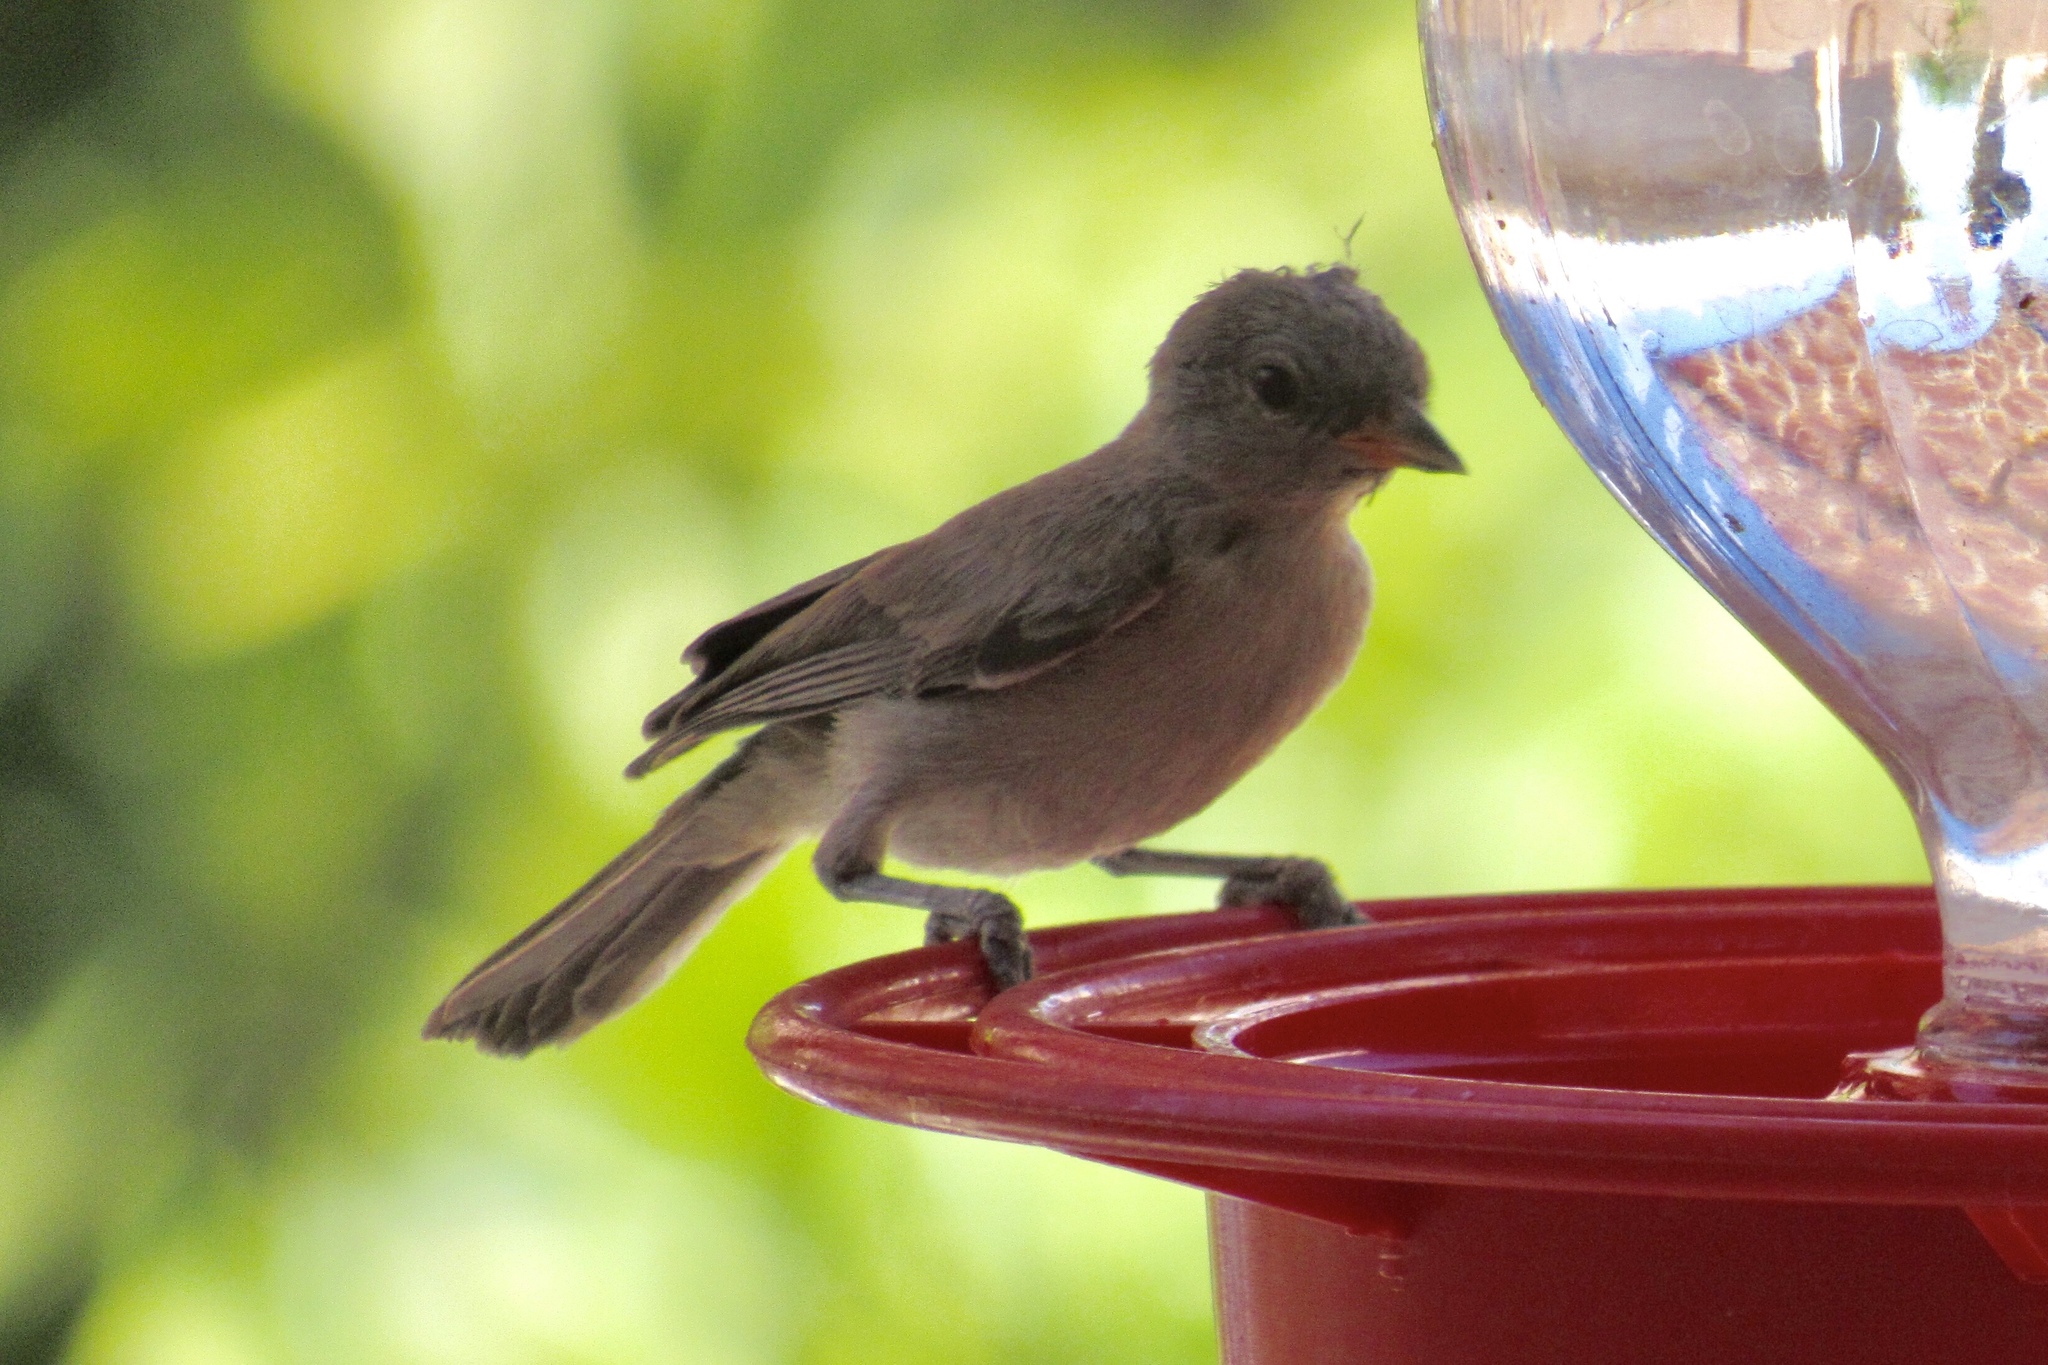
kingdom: Animalia
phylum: Chordata
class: Aves
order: Passeriformes
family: Remizidae
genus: Auriparus
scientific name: Auriparus flaviceps
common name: Verdin
